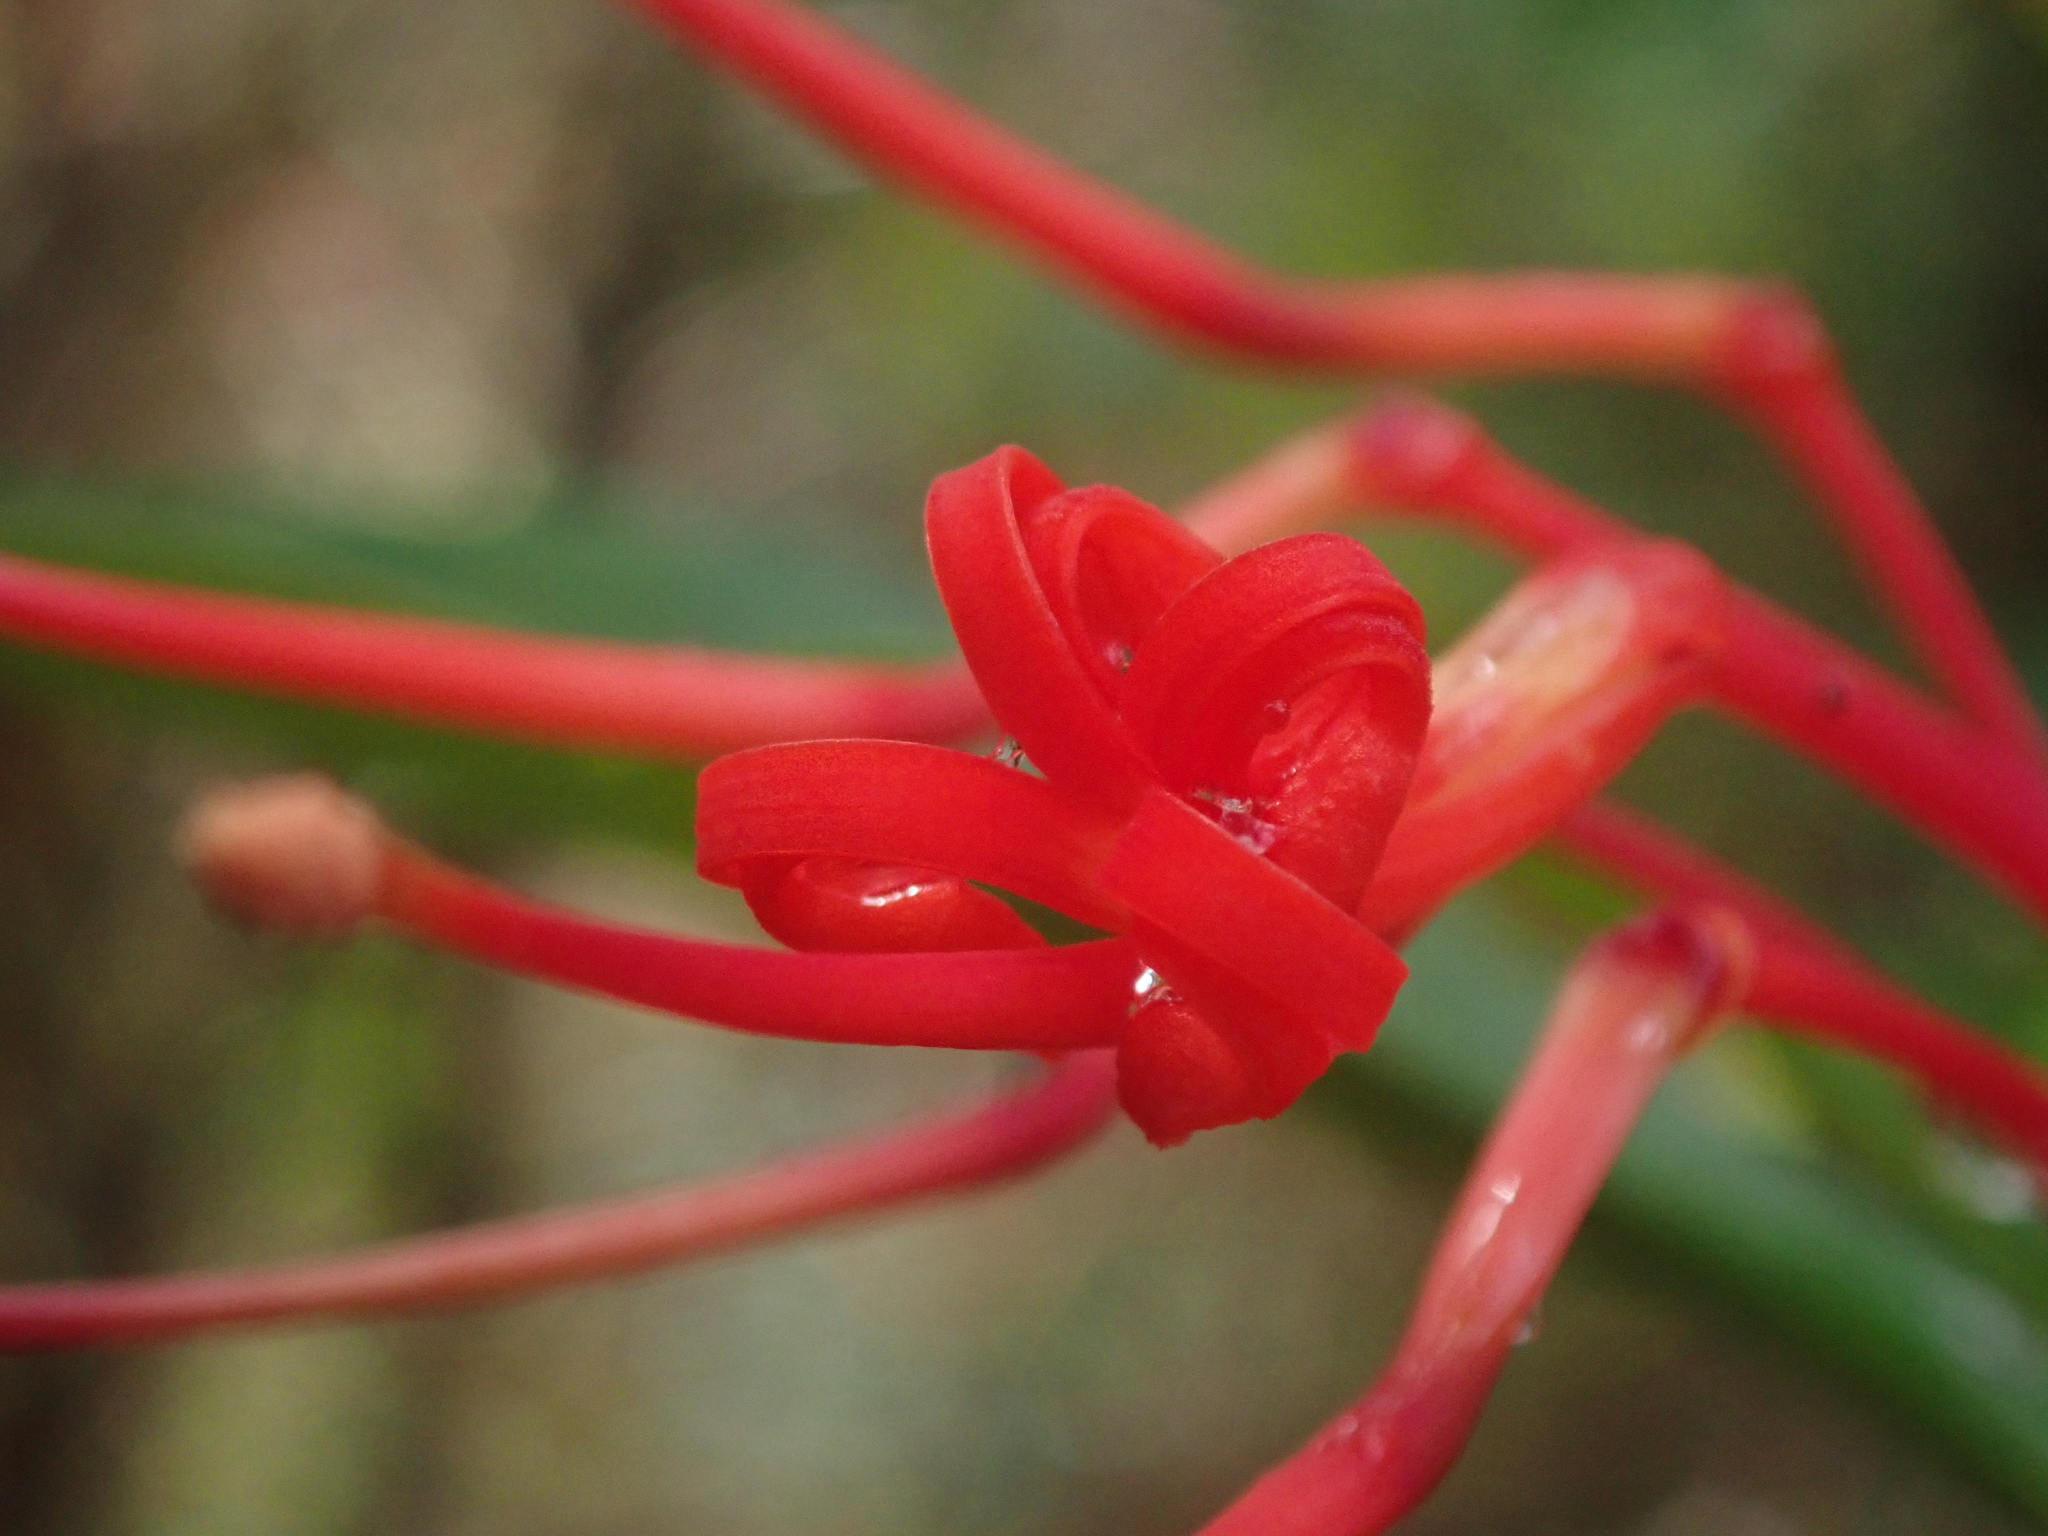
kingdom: Plantae
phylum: Tracheophyta
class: Magnoliopsida
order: Proteales
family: Proteaceae
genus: Embothrium
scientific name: Embothrium coccineum
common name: Chilean firebush
